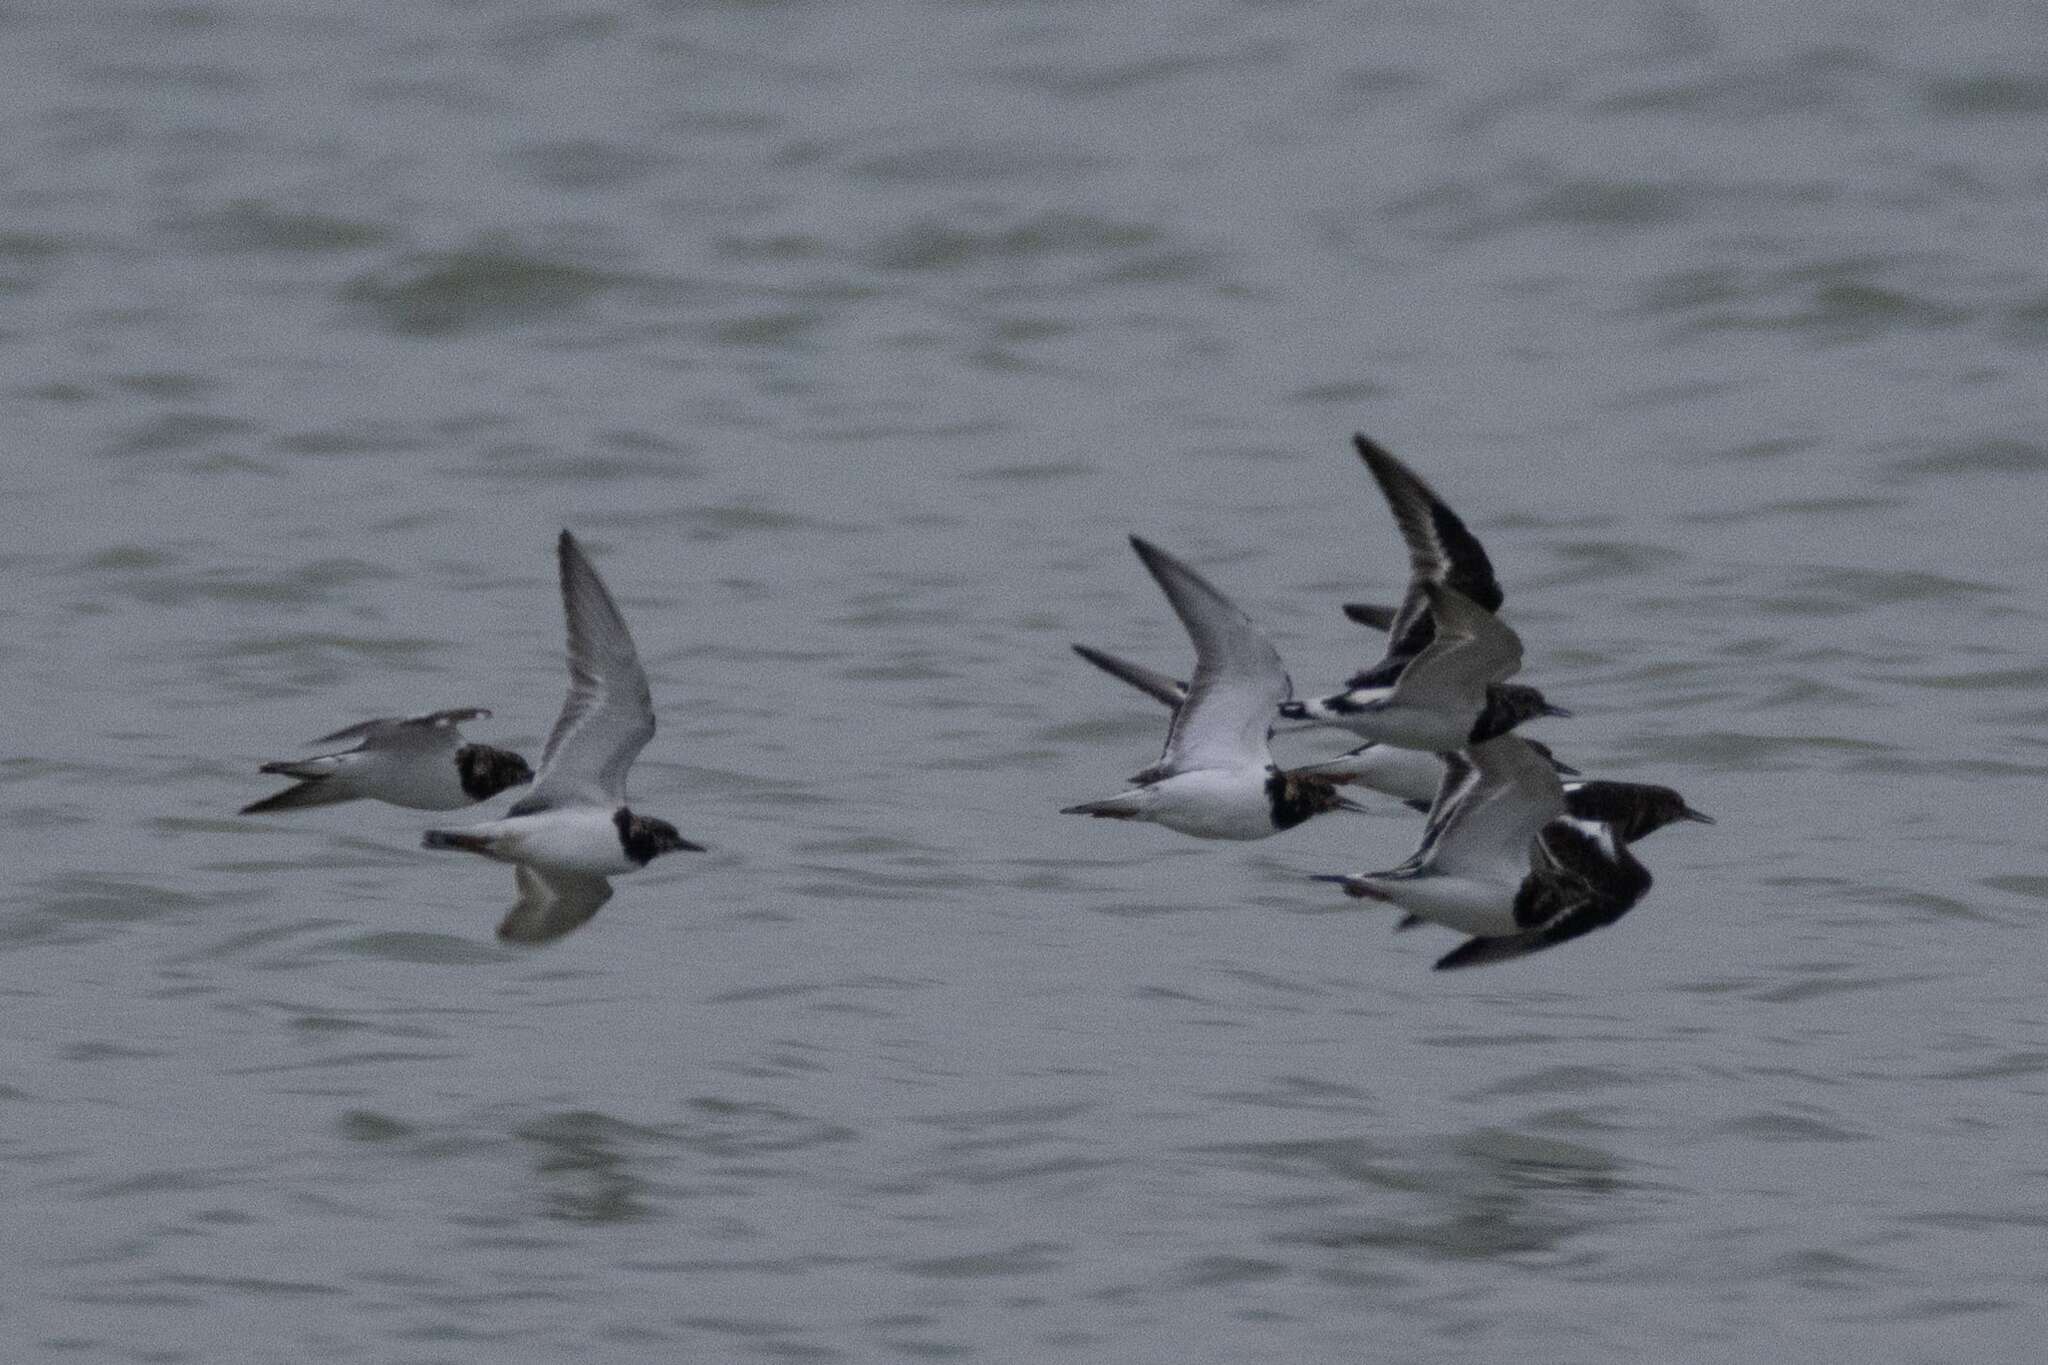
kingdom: Animalia
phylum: Chordata
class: Aves
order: Charadriiformes
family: Scolopacidae
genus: Arenaria
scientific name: Arenaria interpres
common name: Ruddy turnstone
